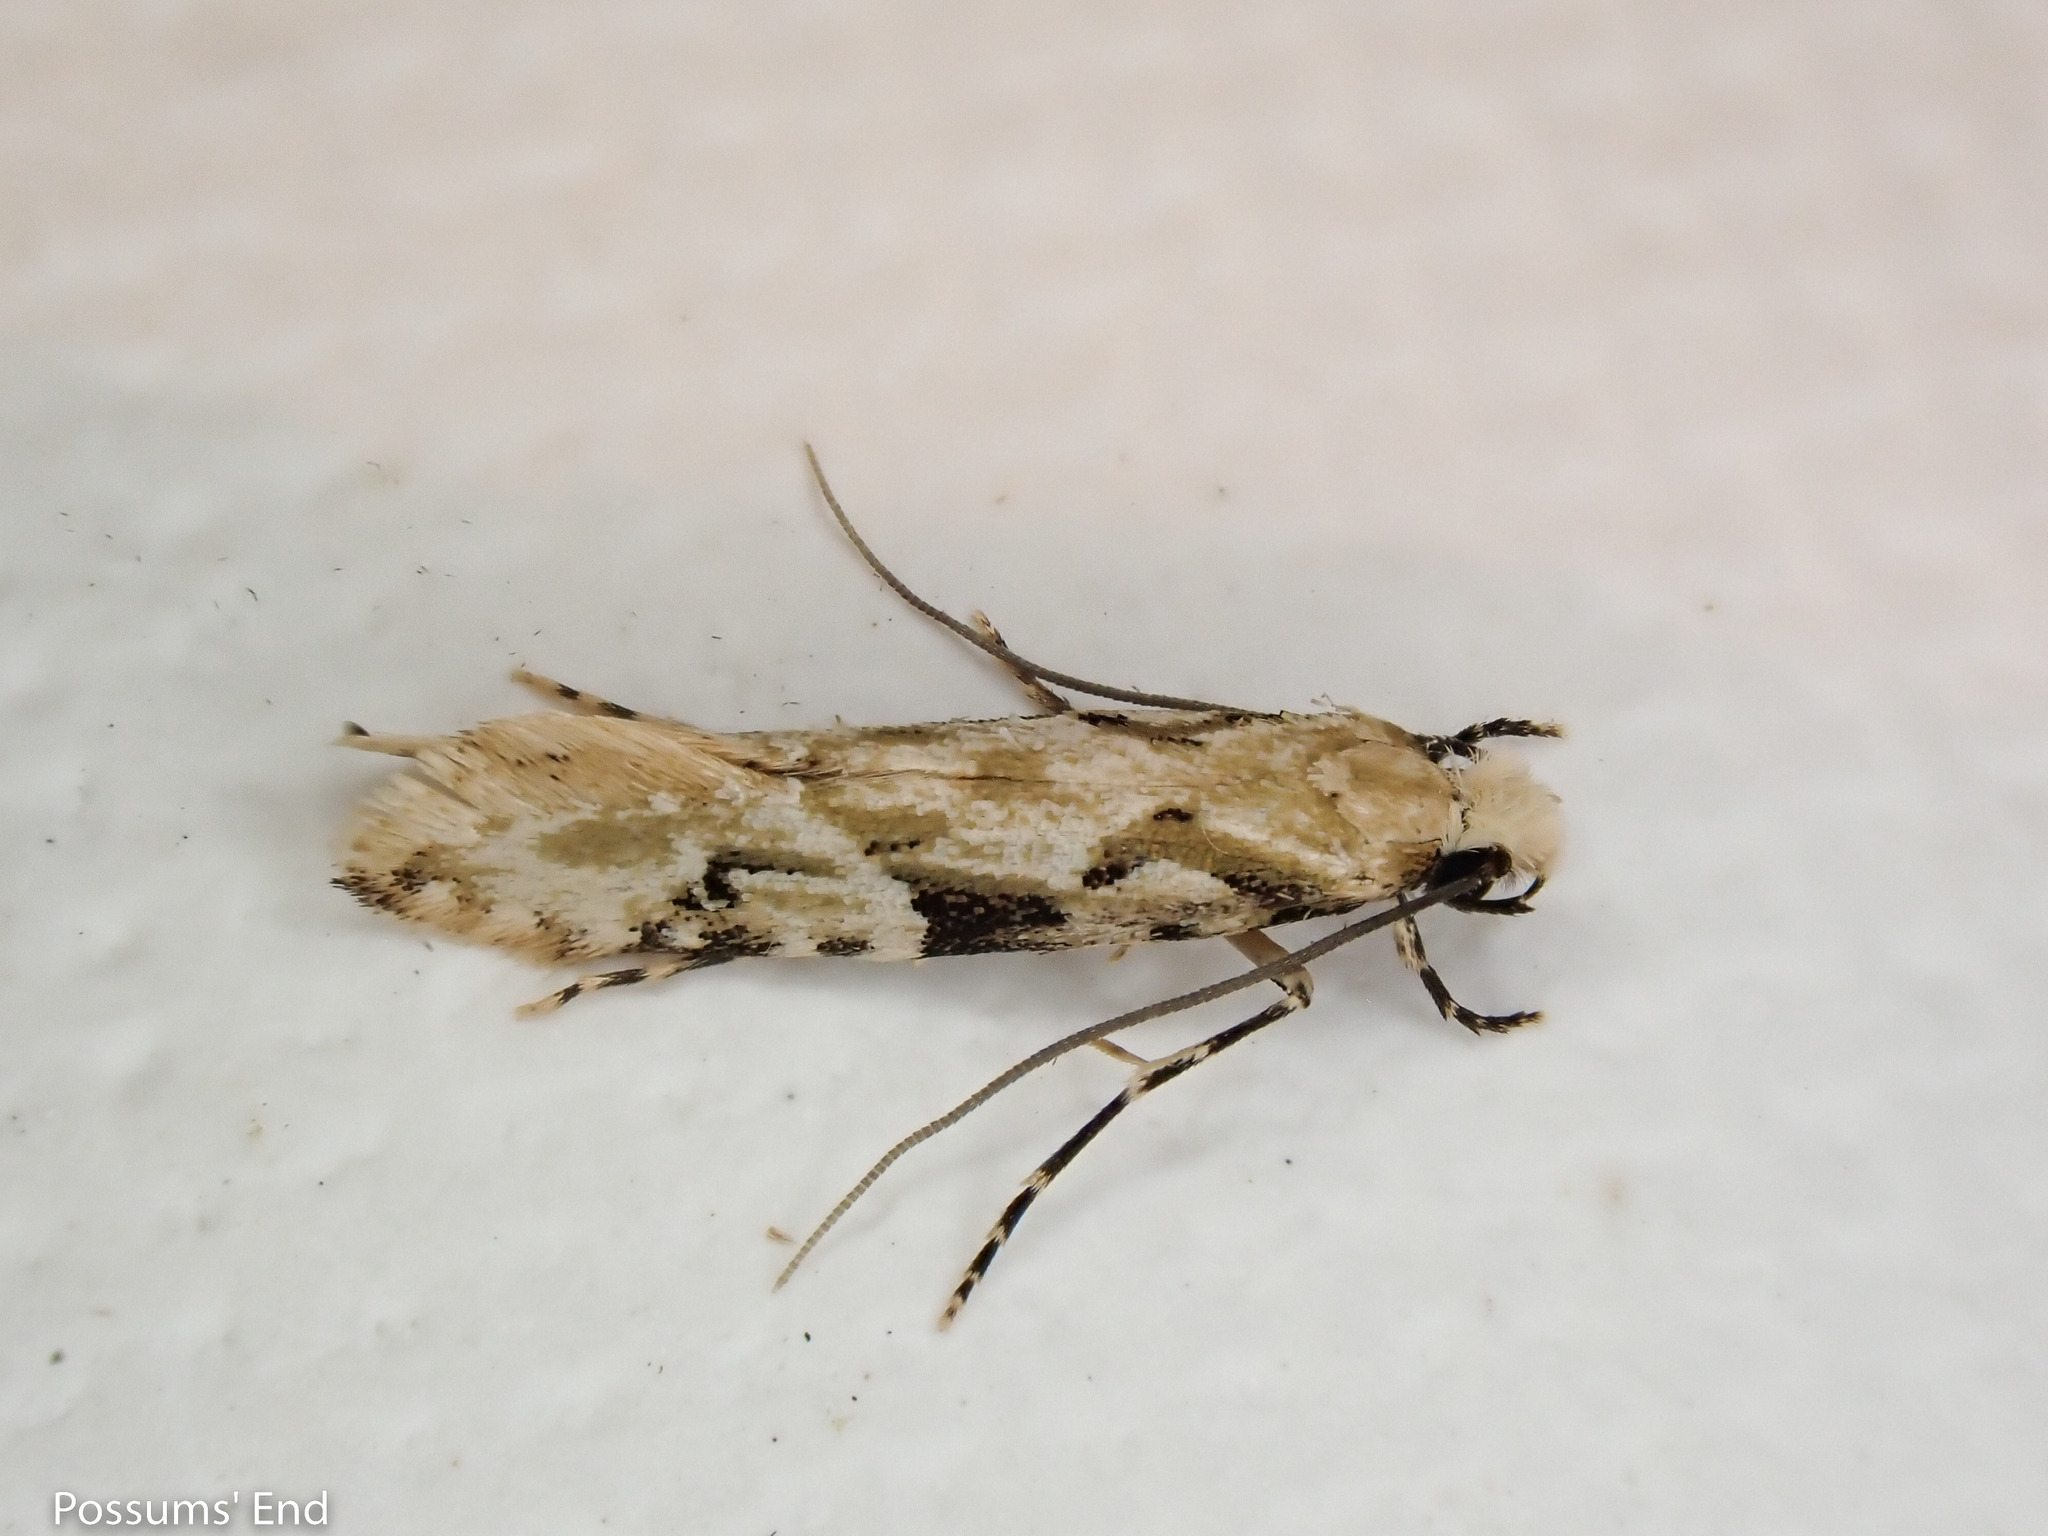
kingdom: Animalia
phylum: Arthropoda
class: Insecta
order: Lepidoptera
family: Tineidae
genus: Crypsitricha
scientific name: Crypsitricha mesotypa
